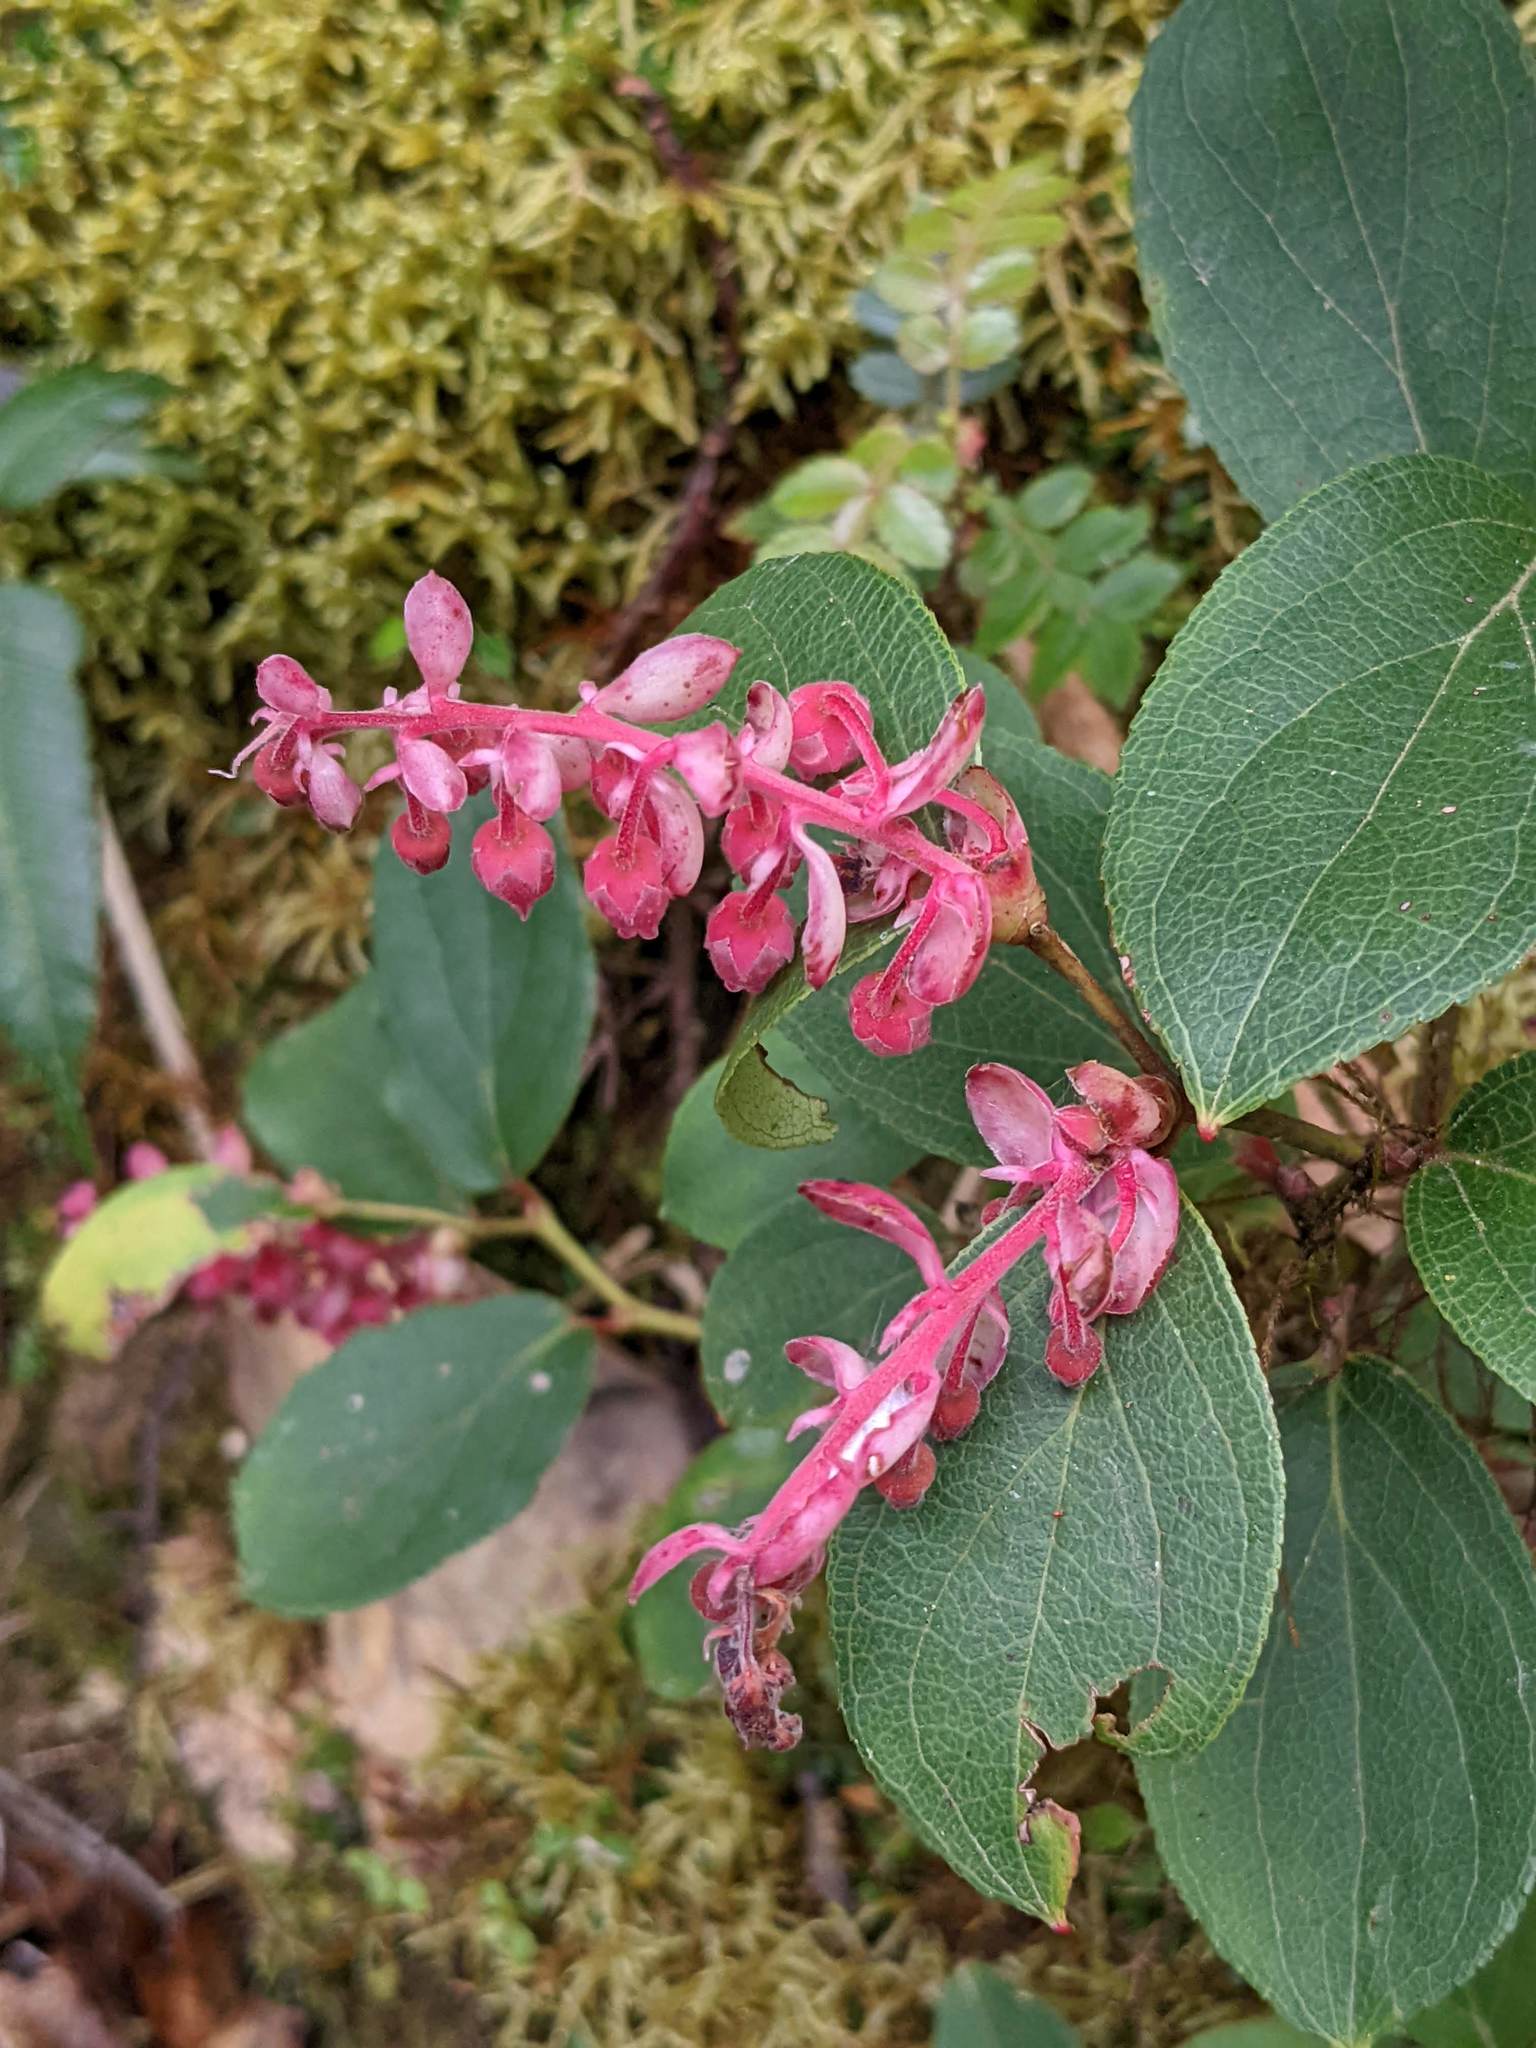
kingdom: Plantae
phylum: Tracheophyta
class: Magnoliopsida
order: Ericales
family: Ericaceae
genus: Gaultheria
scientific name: Gaultheria erecta
